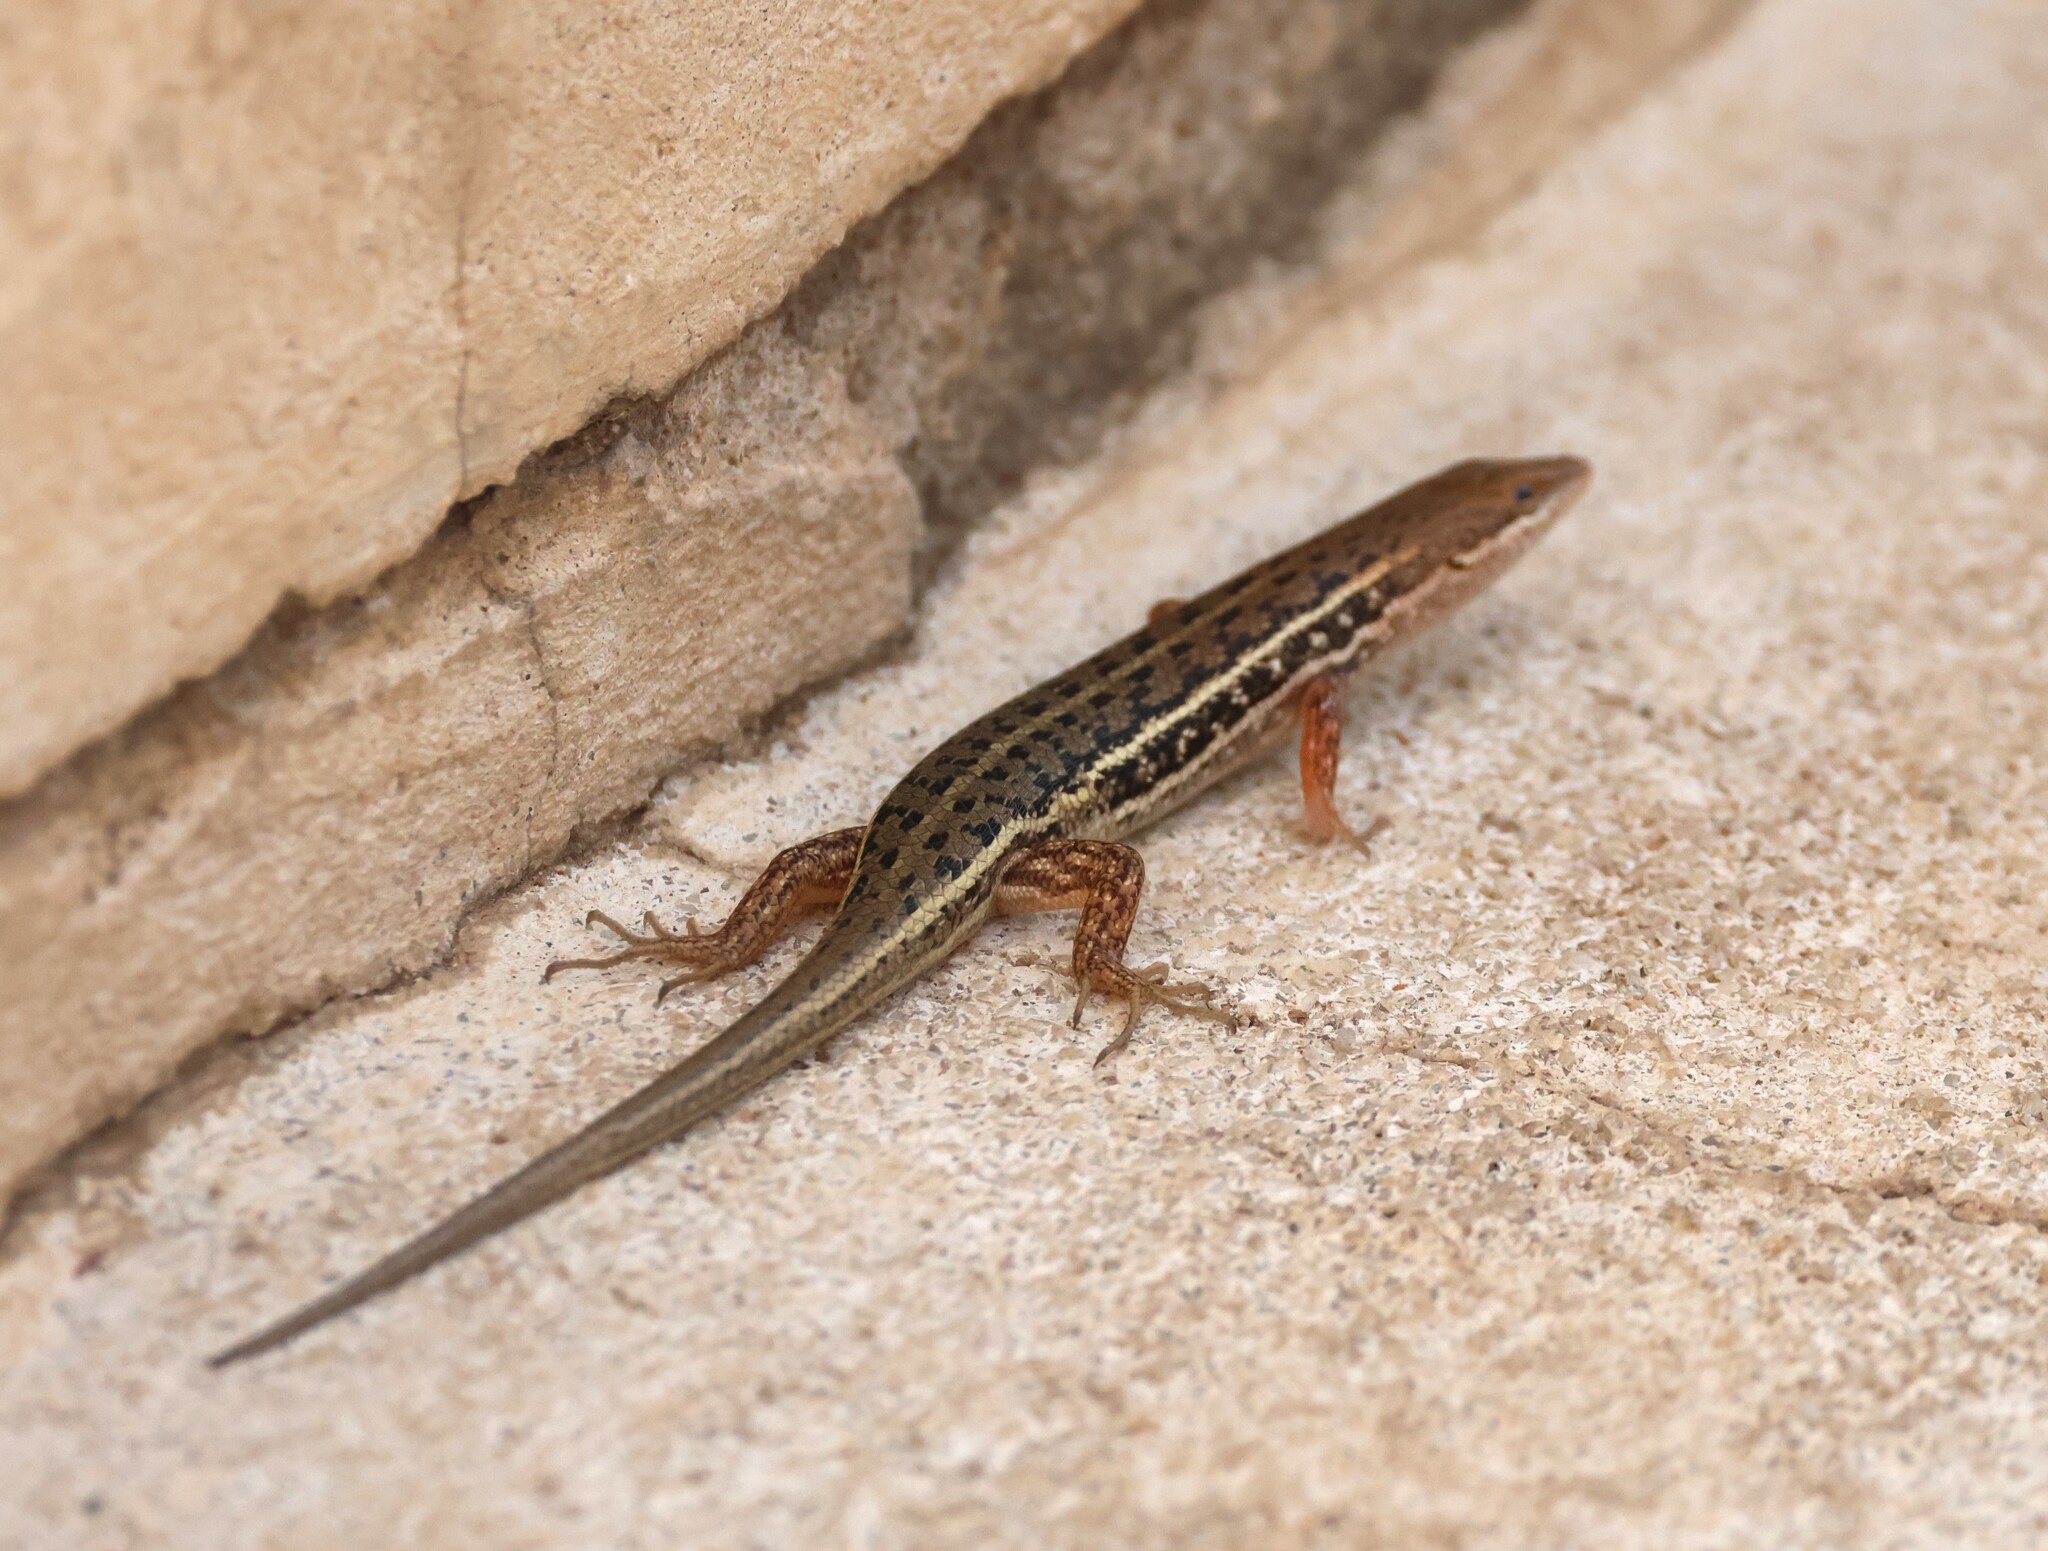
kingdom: Animalia
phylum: Chordata
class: Squamata
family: Scincidae
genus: Trachylepis
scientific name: Trachylepis variegata
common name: Variegated skink
